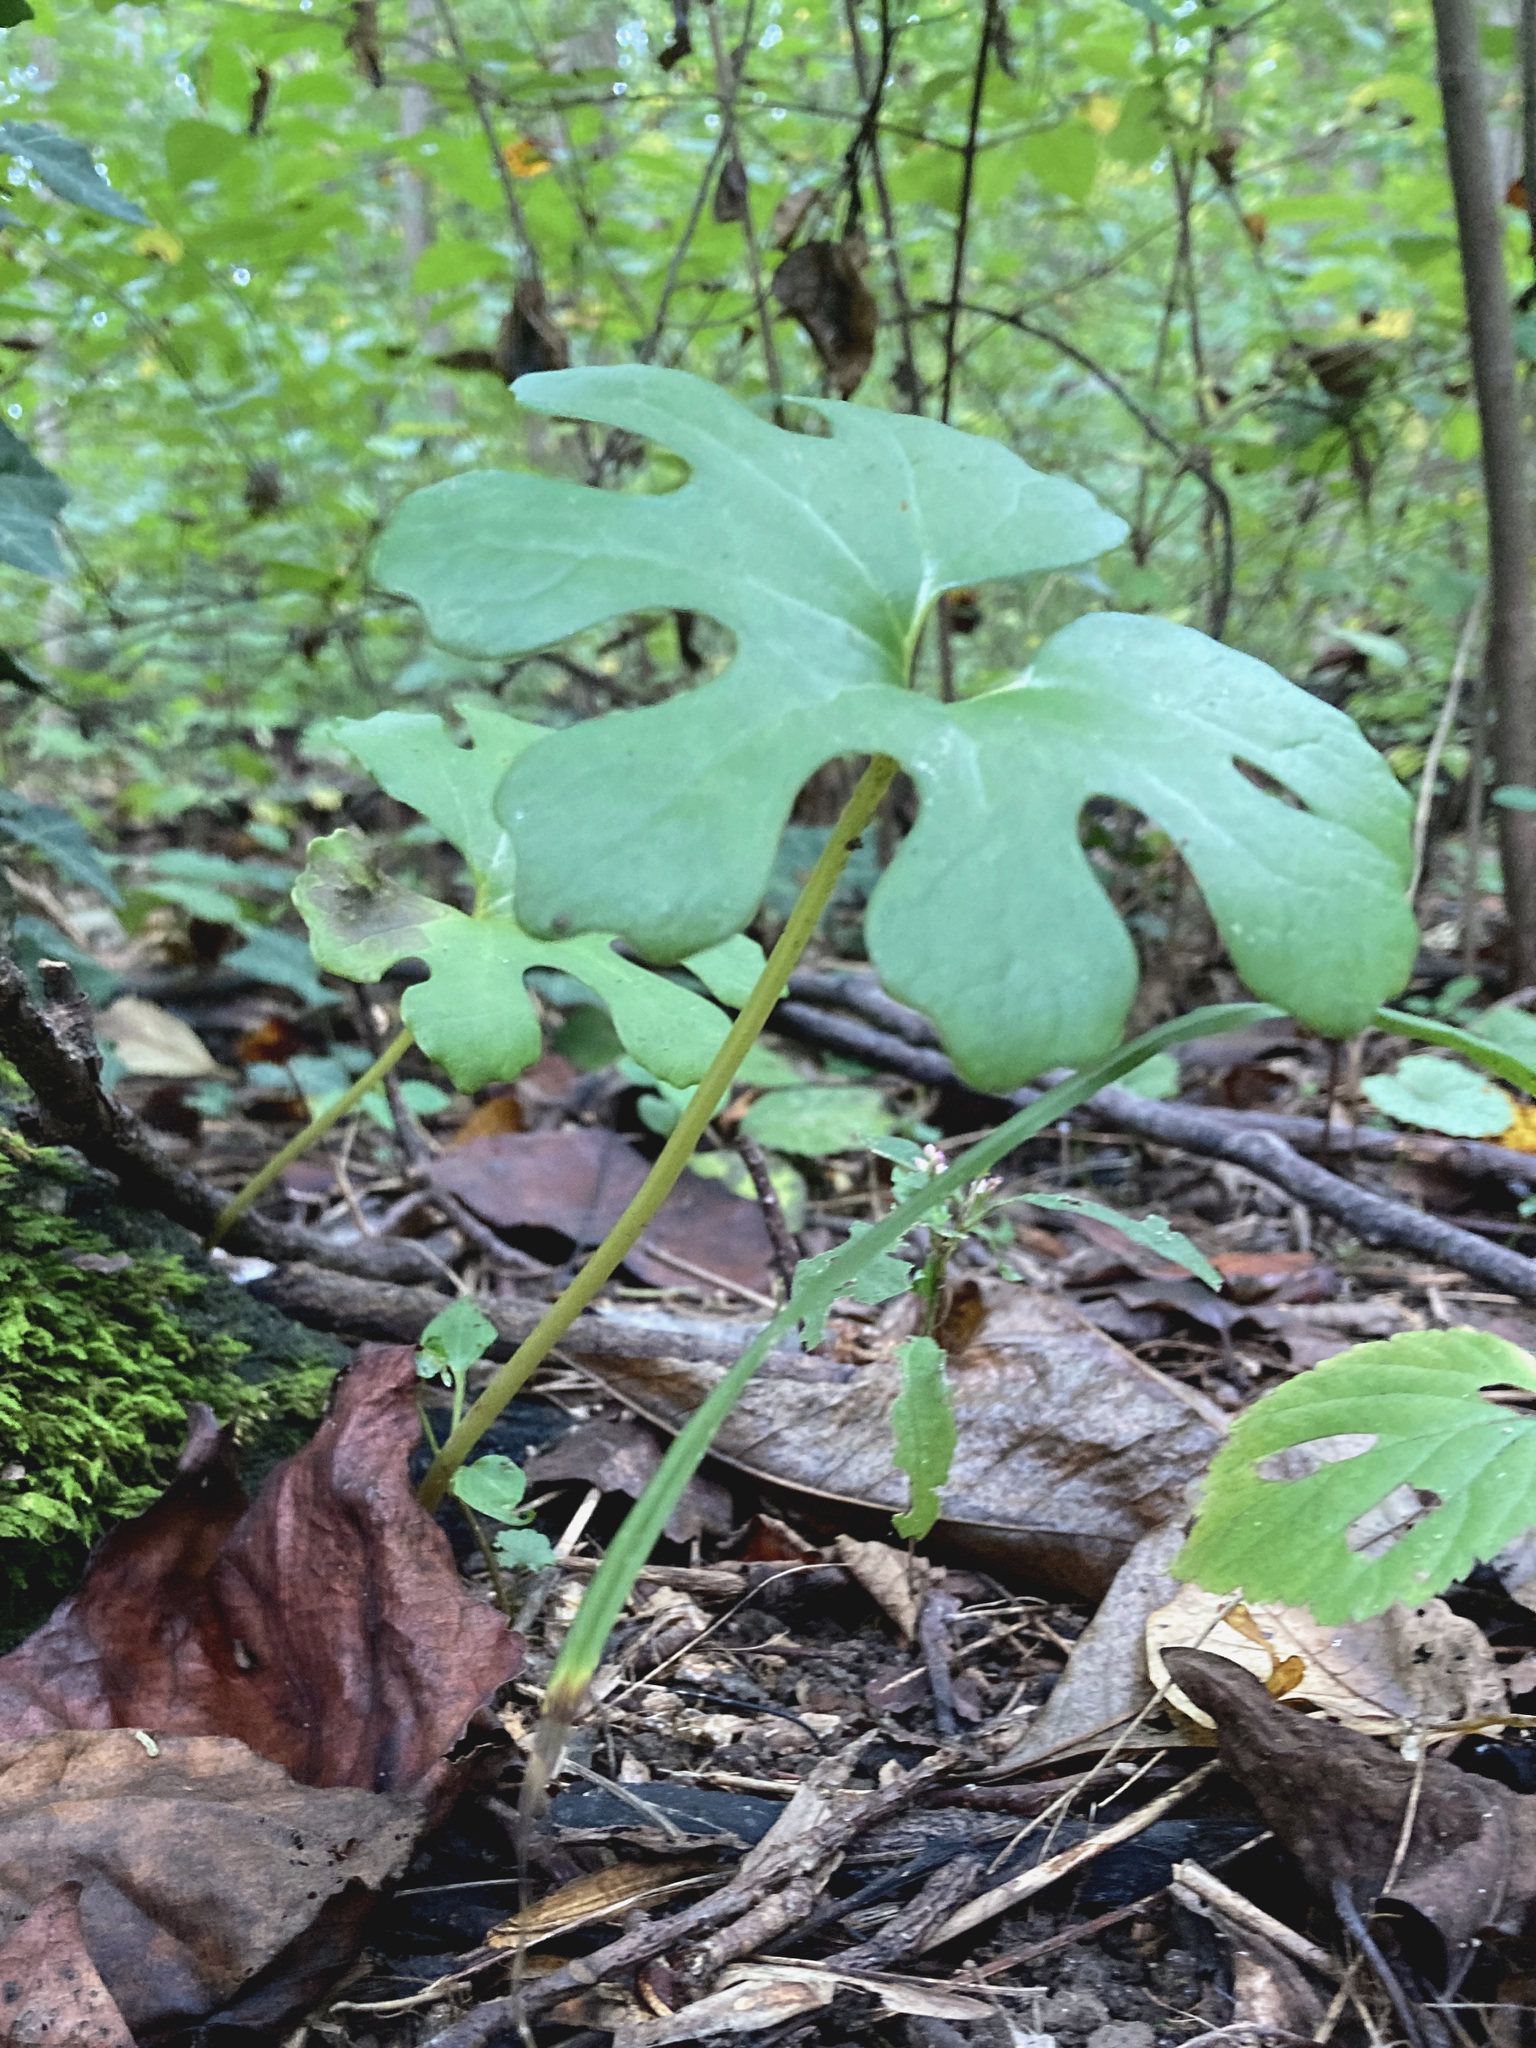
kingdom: Plantae
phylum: Tracheophyta
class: Magnoliopsida
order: Ranunculales
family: Papaveraceae
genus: Sanguinaria
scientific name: Sanguinaria canadensis
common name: Bloodroot
